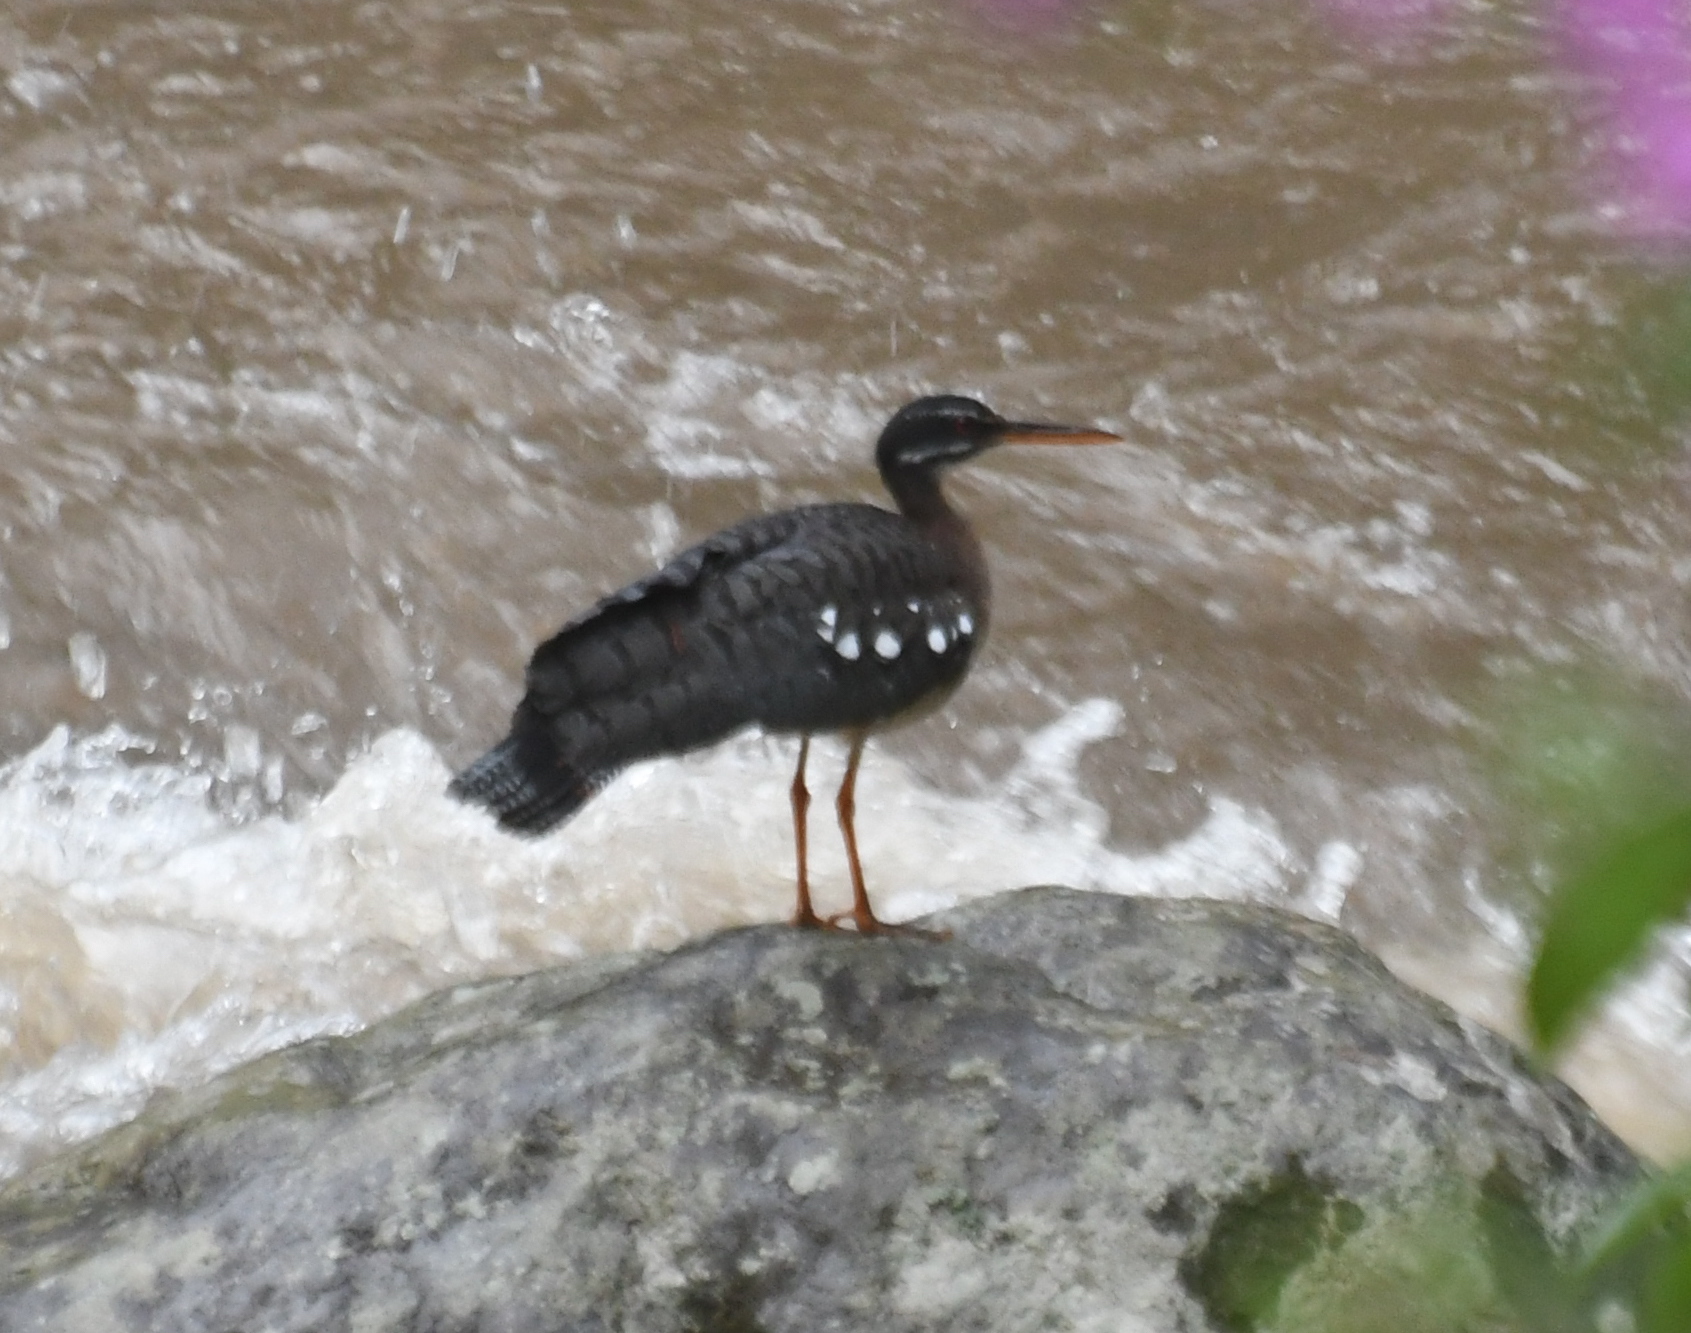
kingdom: Animalia
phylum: Chordata
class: Aves
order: Eurypygiformes
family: Eurypygidae
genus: Eurypyga
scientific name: Eurypyga helias
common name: Sunbittern
